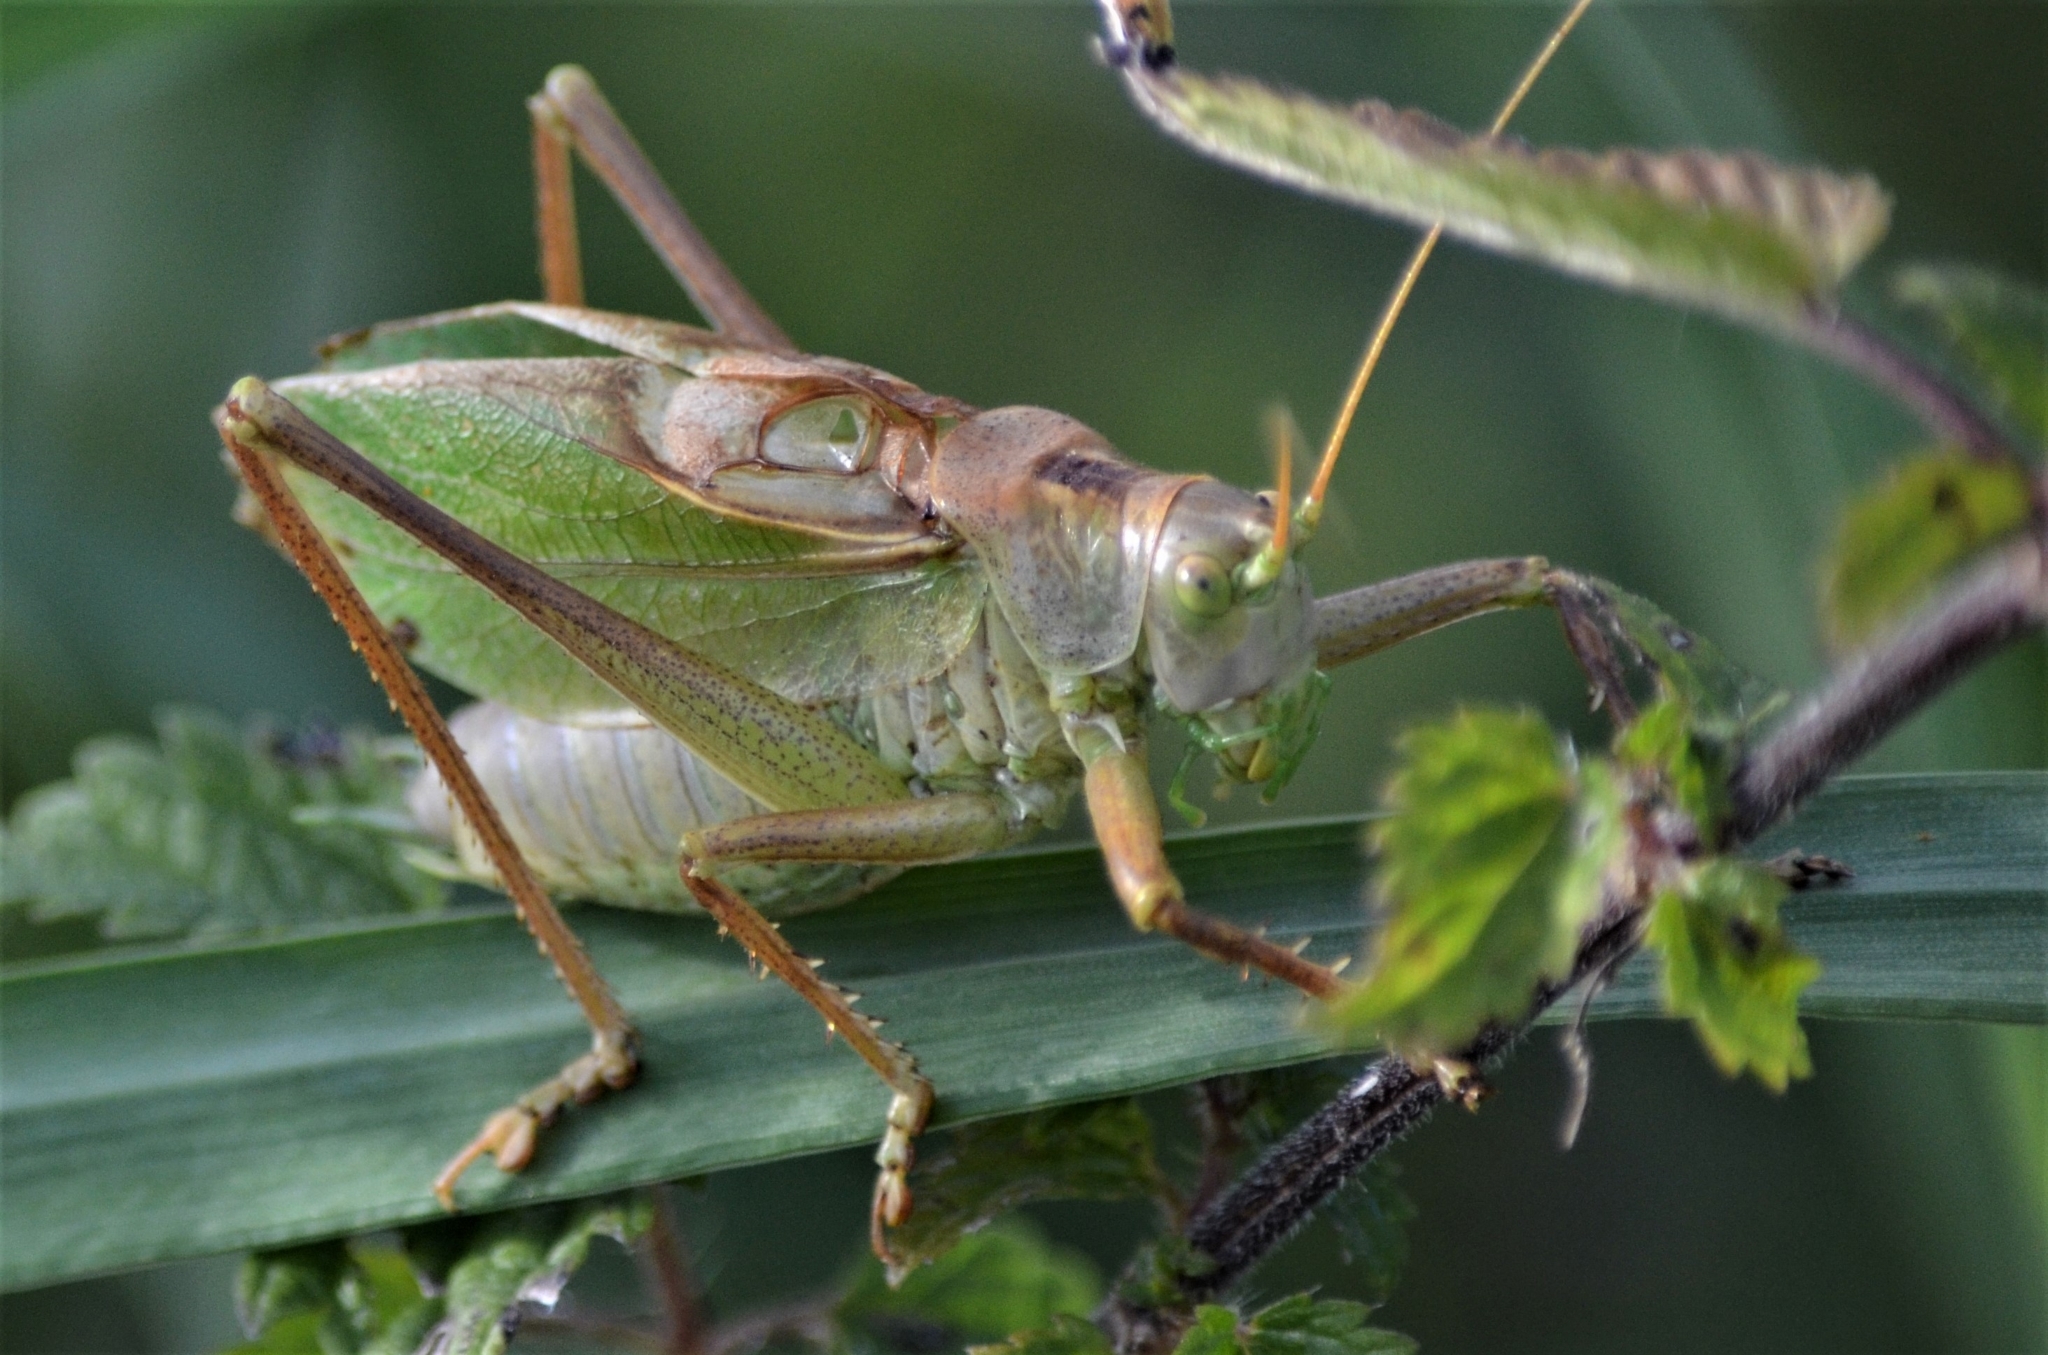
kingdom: Animalia
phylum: Arthropoda
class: Insecta
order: Orthoptera
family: Tettigoniidae
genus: Tettigonia
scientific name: Tettigonia cantans
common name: Upland green bush-cricket
